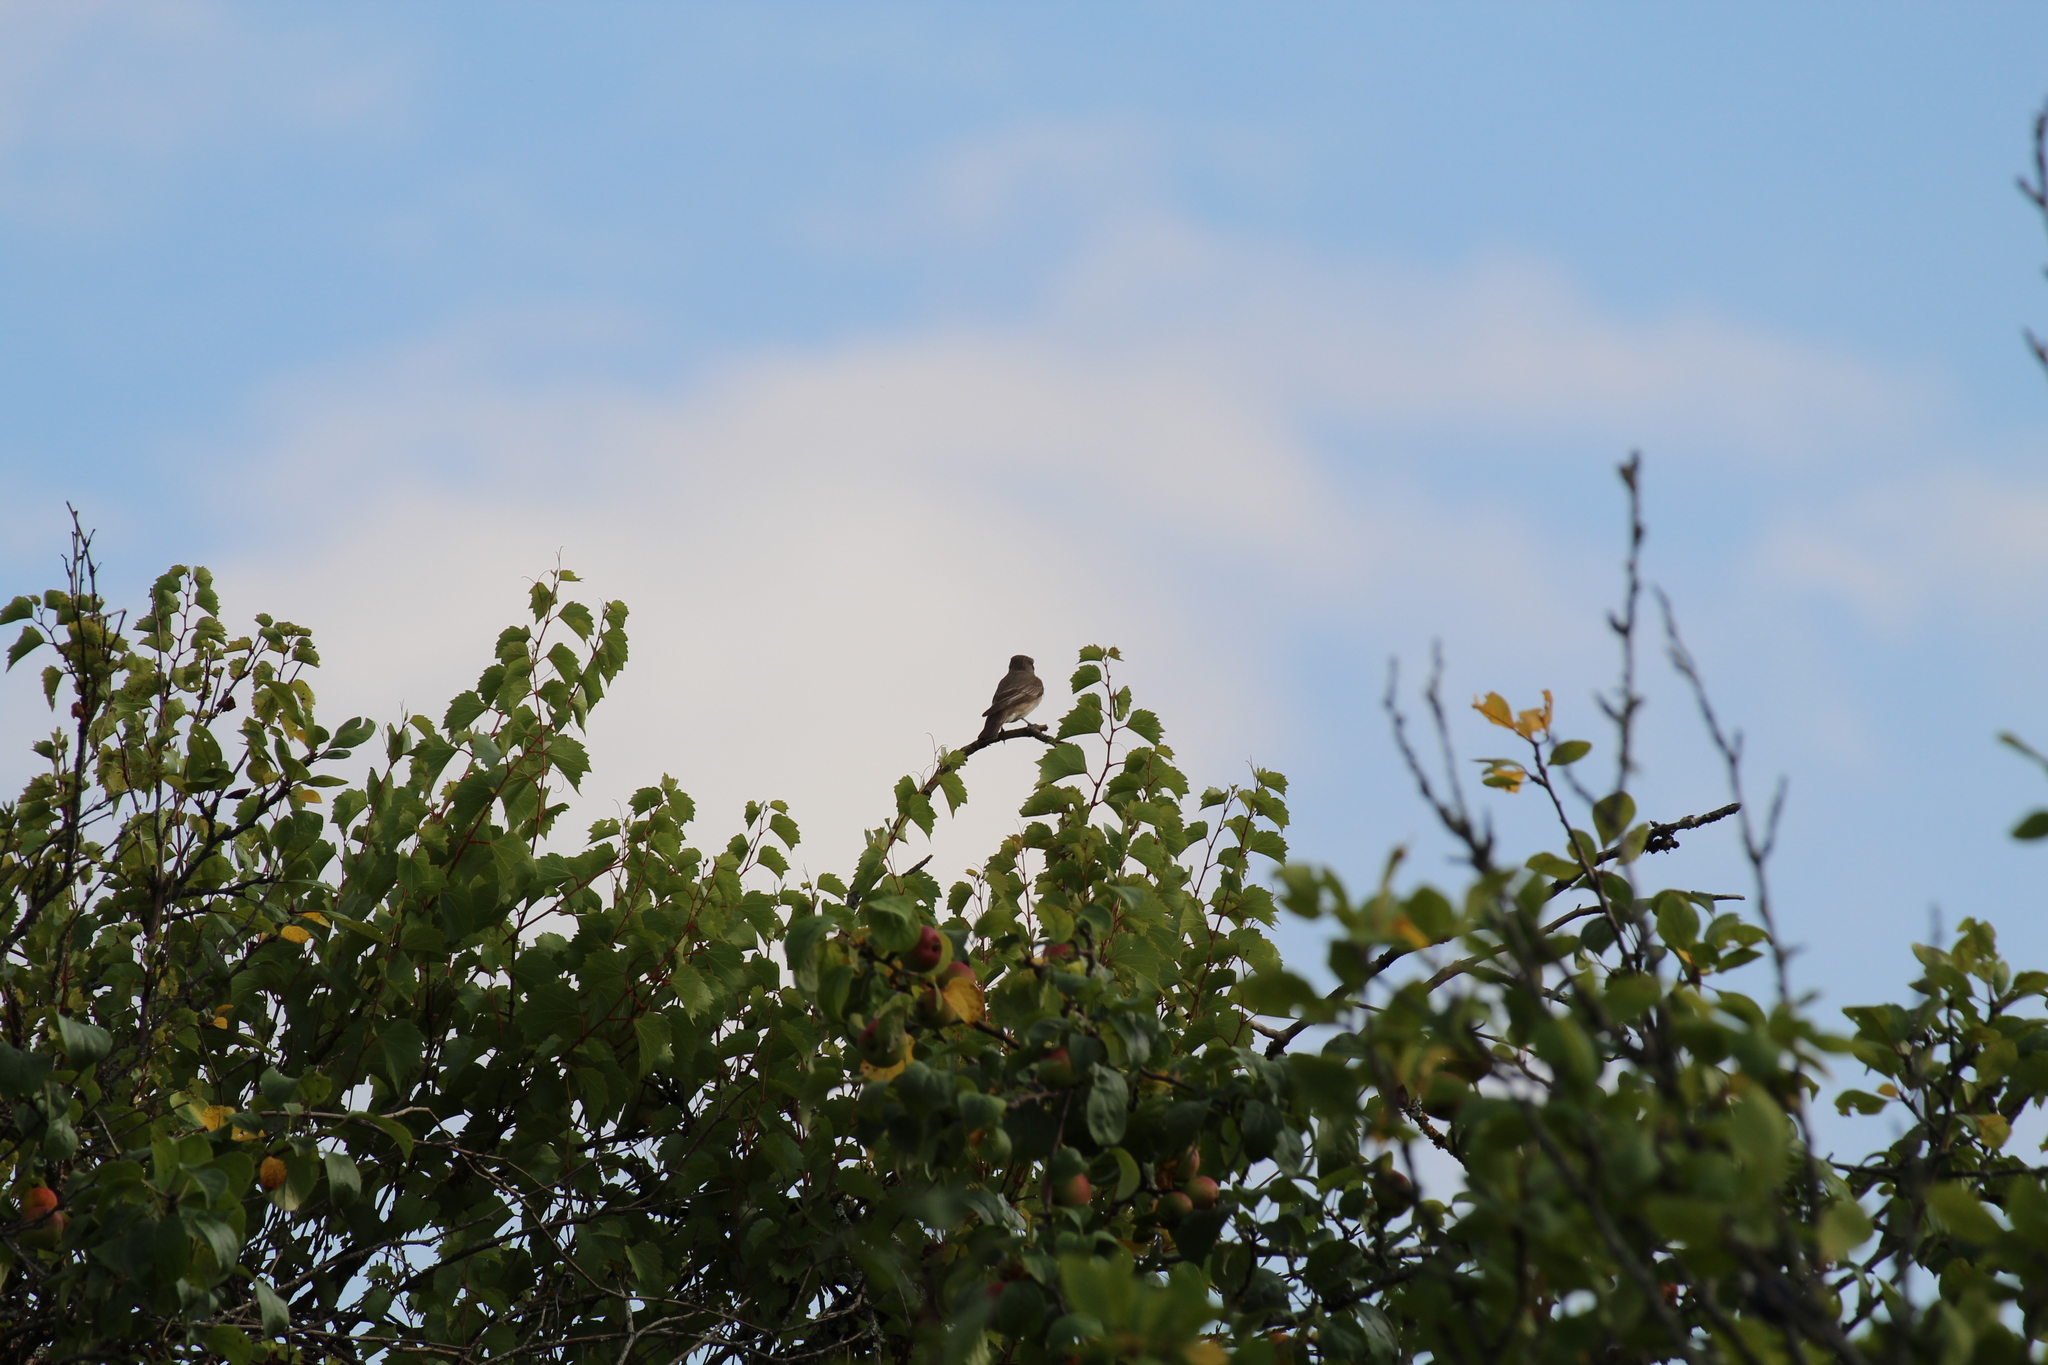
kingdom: Animalia
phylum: Chordata
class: Aves
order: Passeriformes
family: Muscicapidae
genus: Muscicapa
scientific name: Muscicapa striata
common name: Spotted flycatcher
